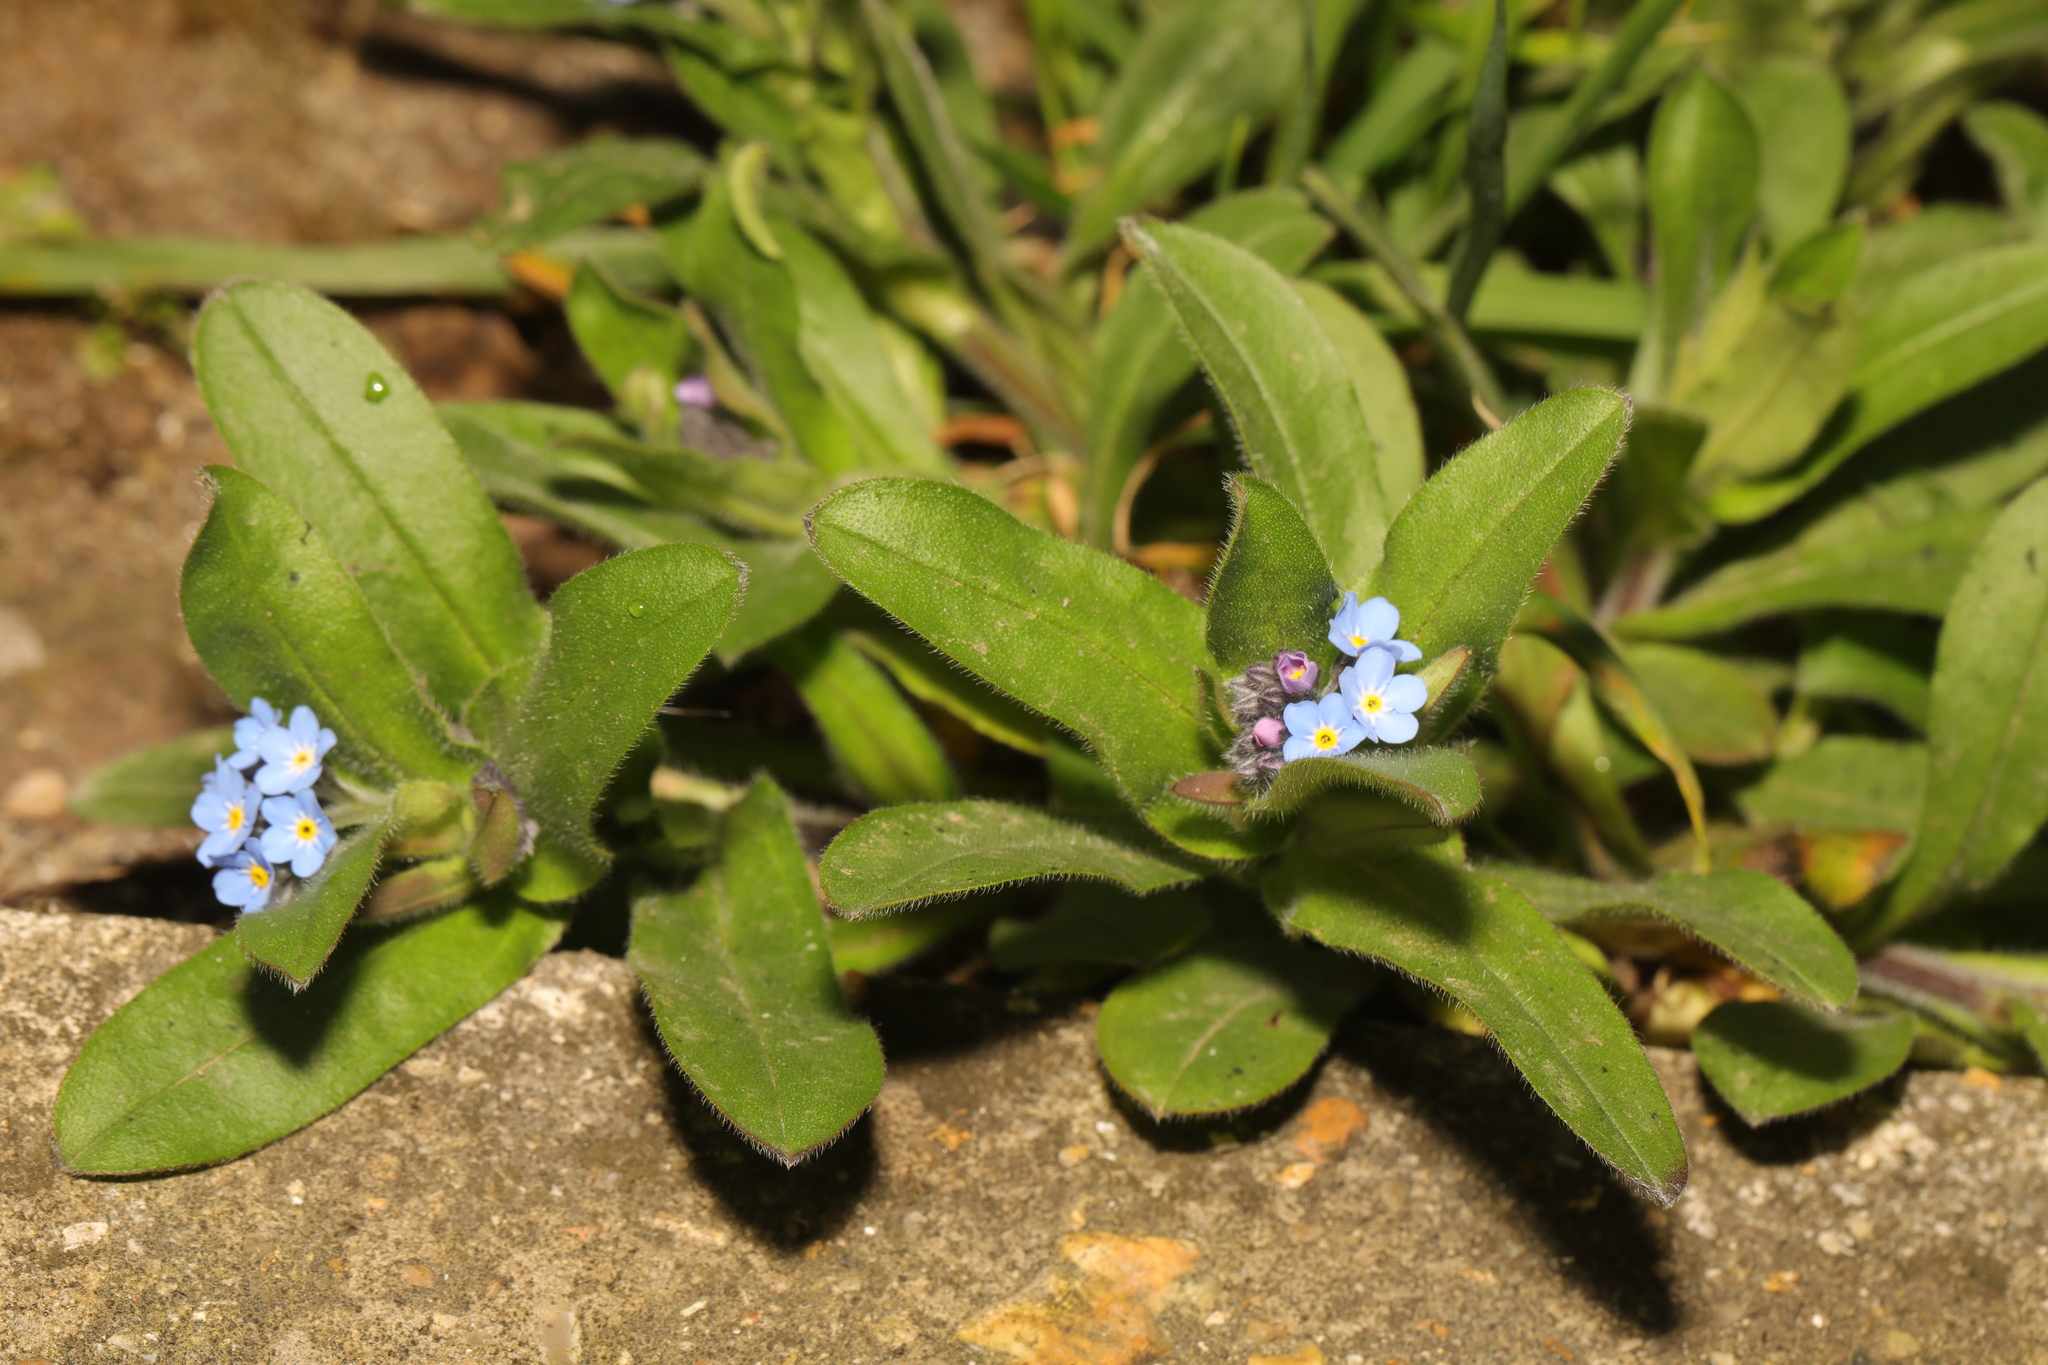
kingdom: Plantae
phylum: Tracheophyta
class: Magnoliopsida
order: Boraginales
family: Boraginaceae
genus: Myosotis
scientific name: Myosotis sylvatica
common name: Wood forget-me-not
